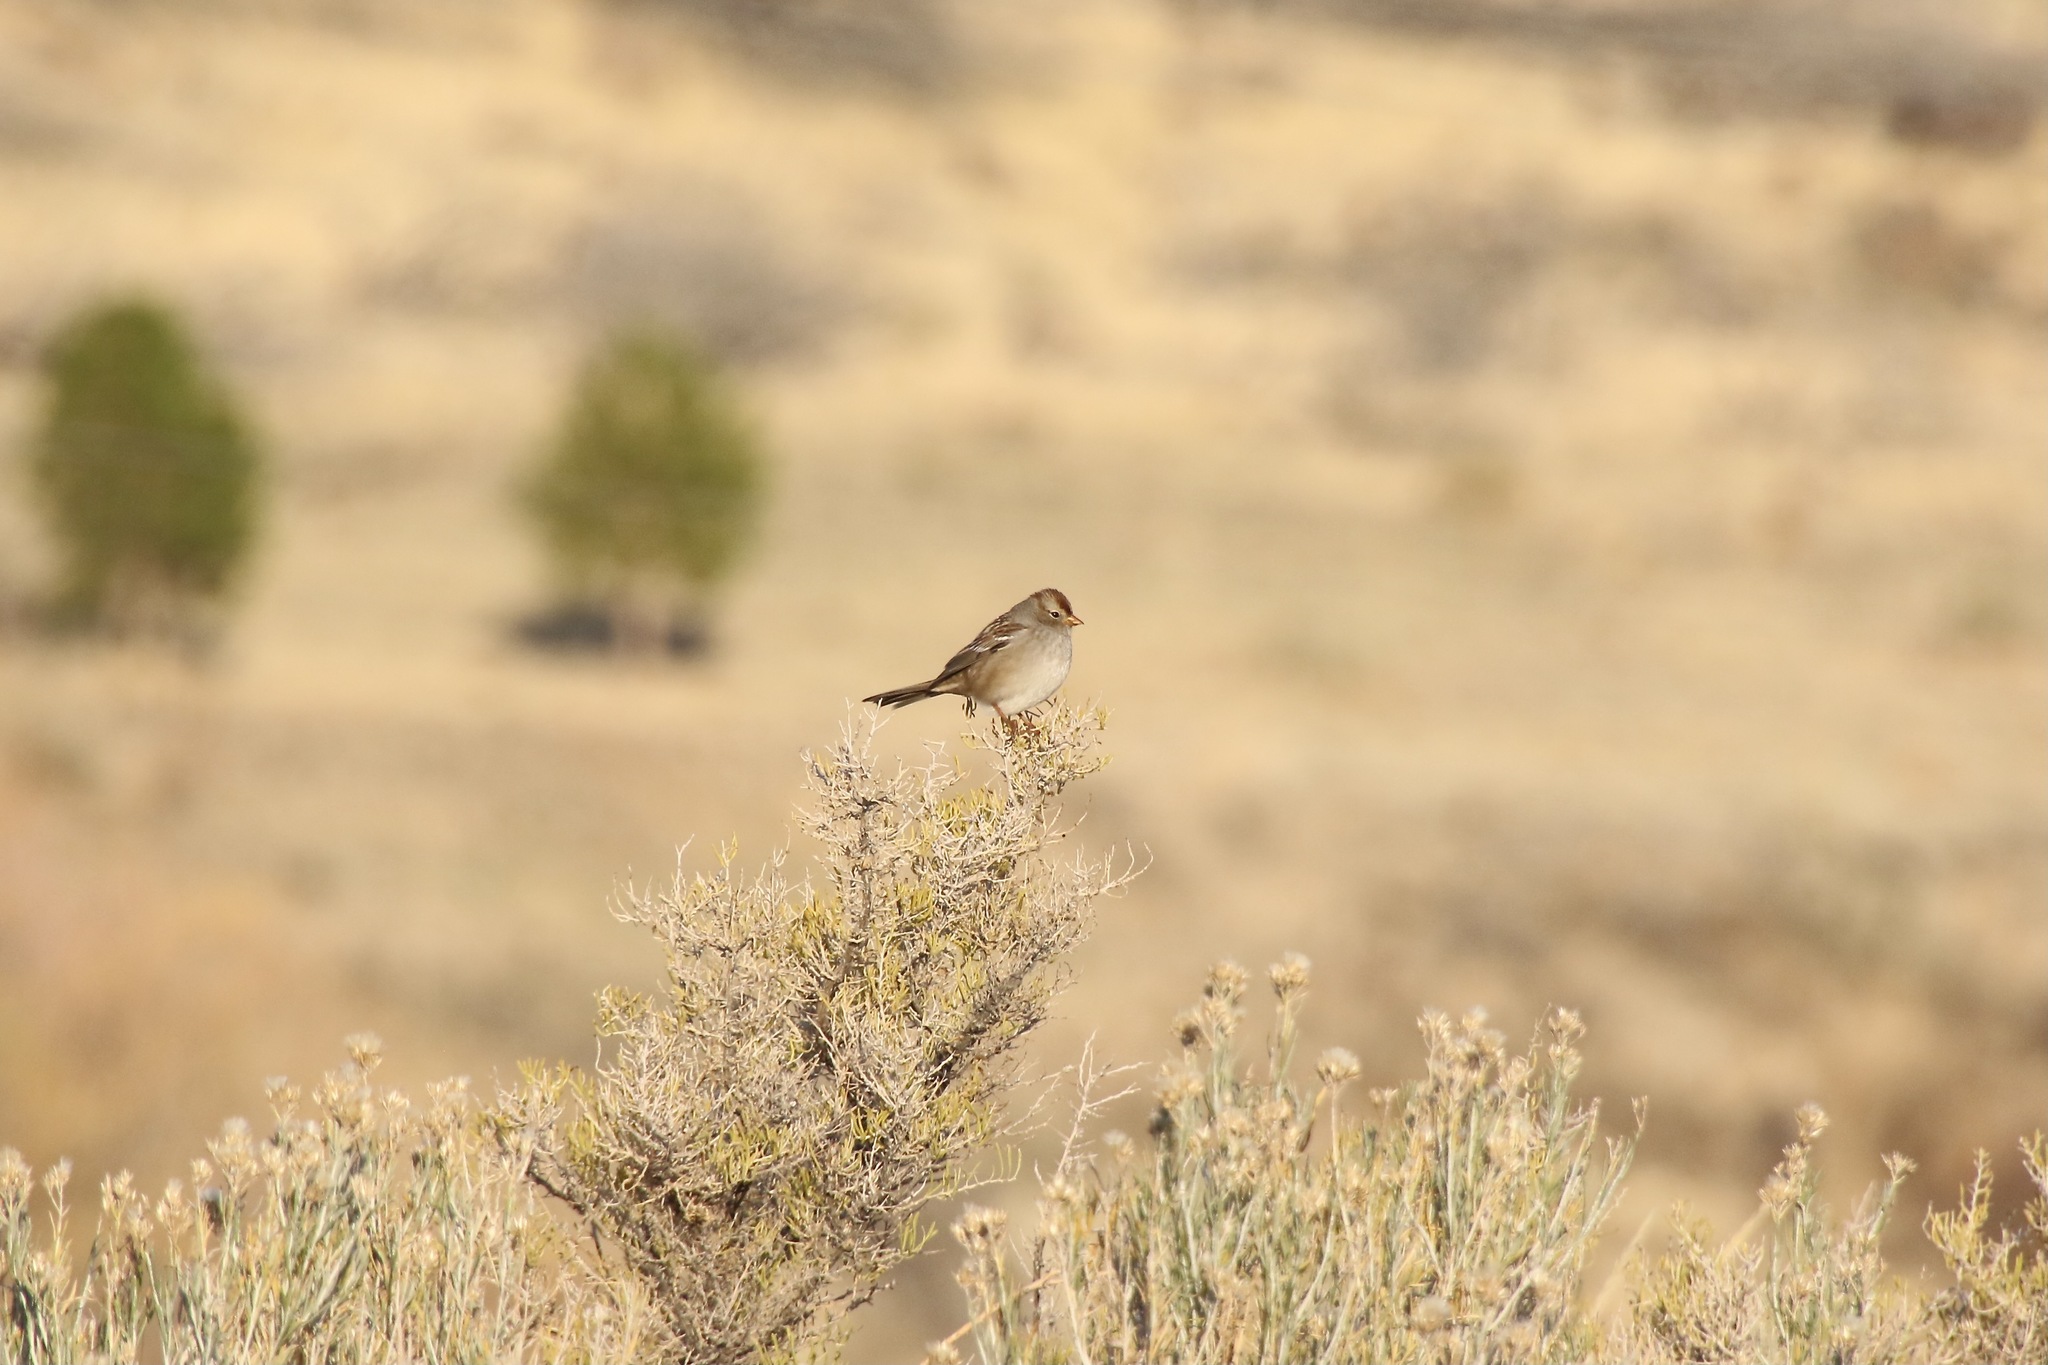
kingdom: Animalia
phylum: Chordata
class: Aves
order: Passeriformes
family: Passerellidae
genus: Zonotrichia
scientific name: Zonotrichia leucophrys
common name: White-crowned sparrow
